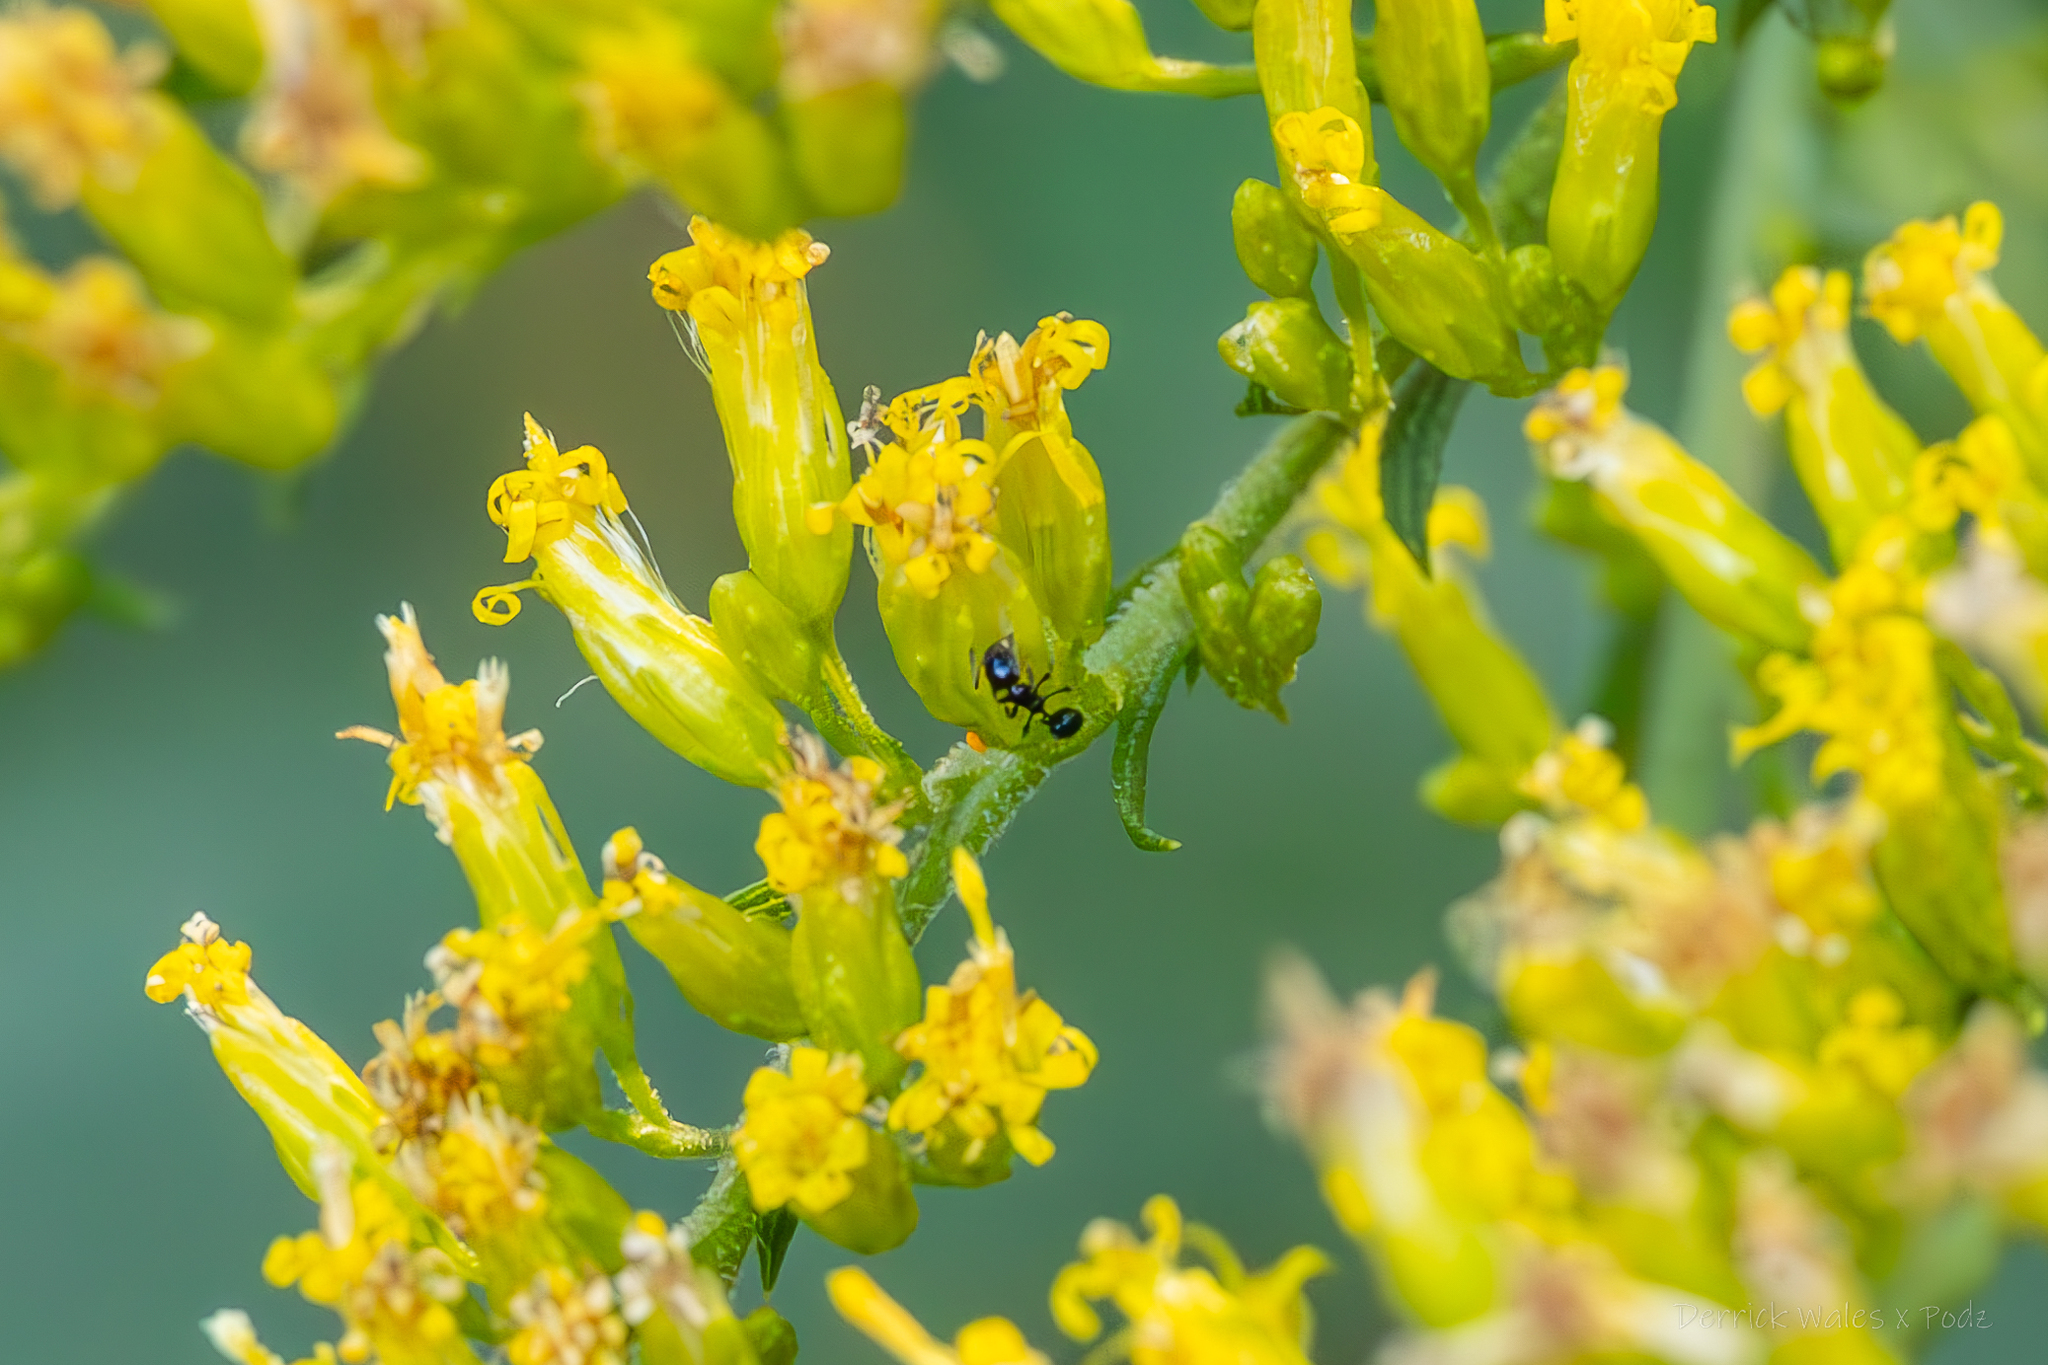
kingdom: Animalia
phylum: Arthropoda
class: Insecta
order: Hymenoptera
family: Formicidae
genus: Monomorium
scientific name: Monomorium
